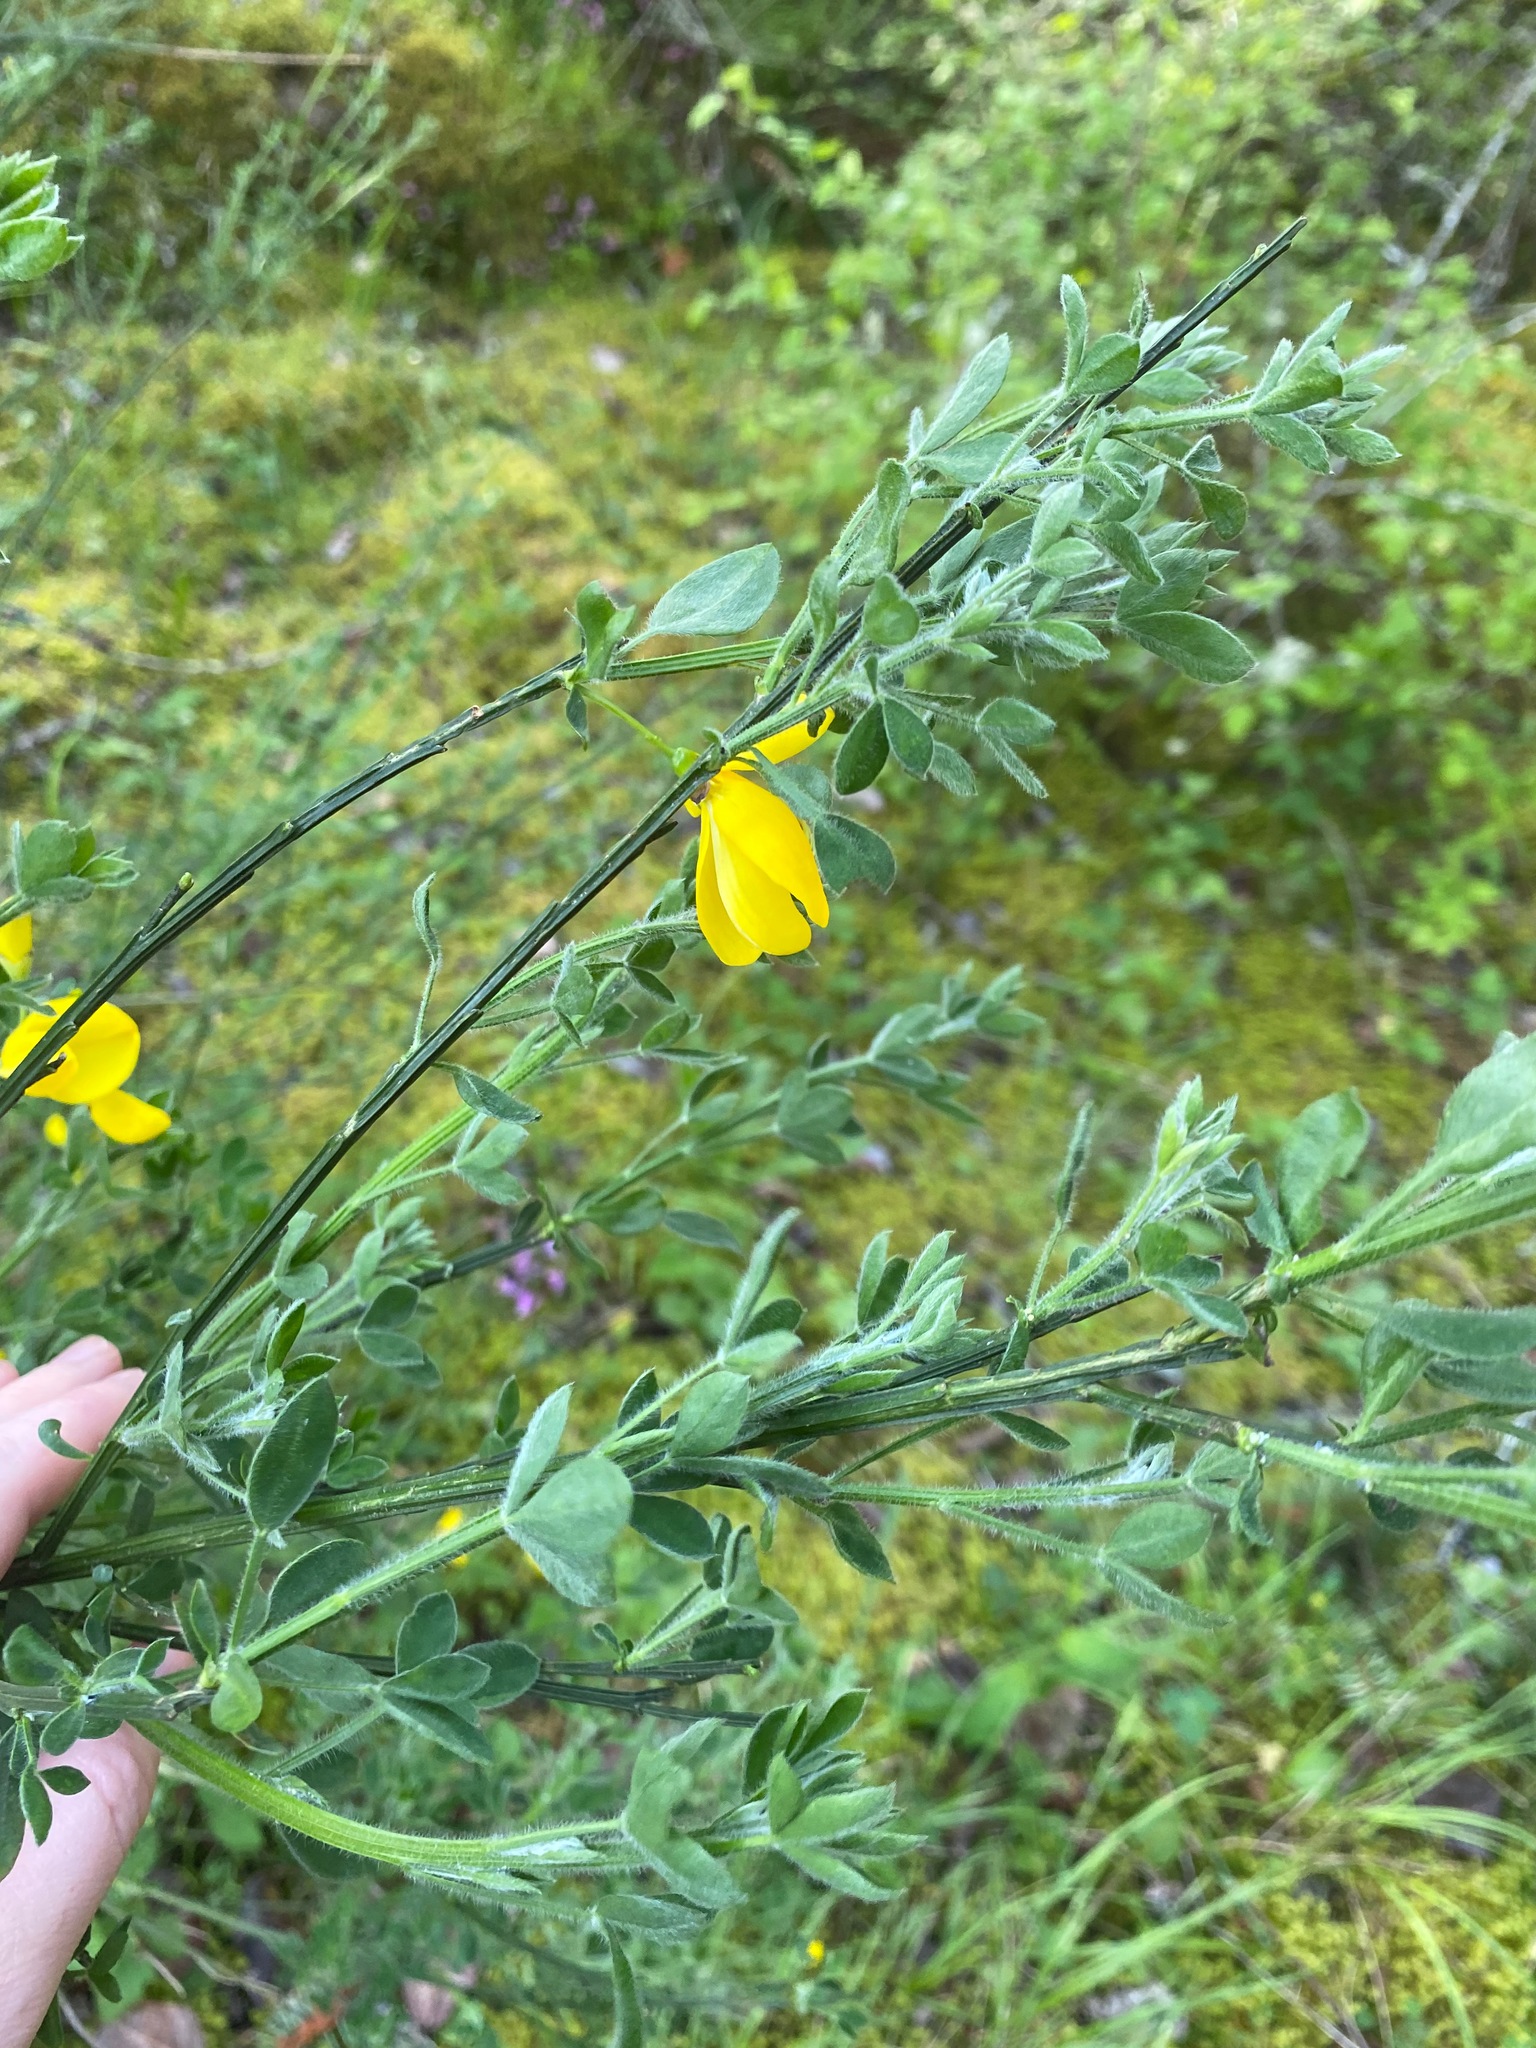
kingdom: Plantae
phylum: Tracheophyta
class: Magnoliopsida
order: Fabales
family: Fabaceae
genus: Cytisus
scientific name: Cytisus scoparius
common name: Scotch broom
